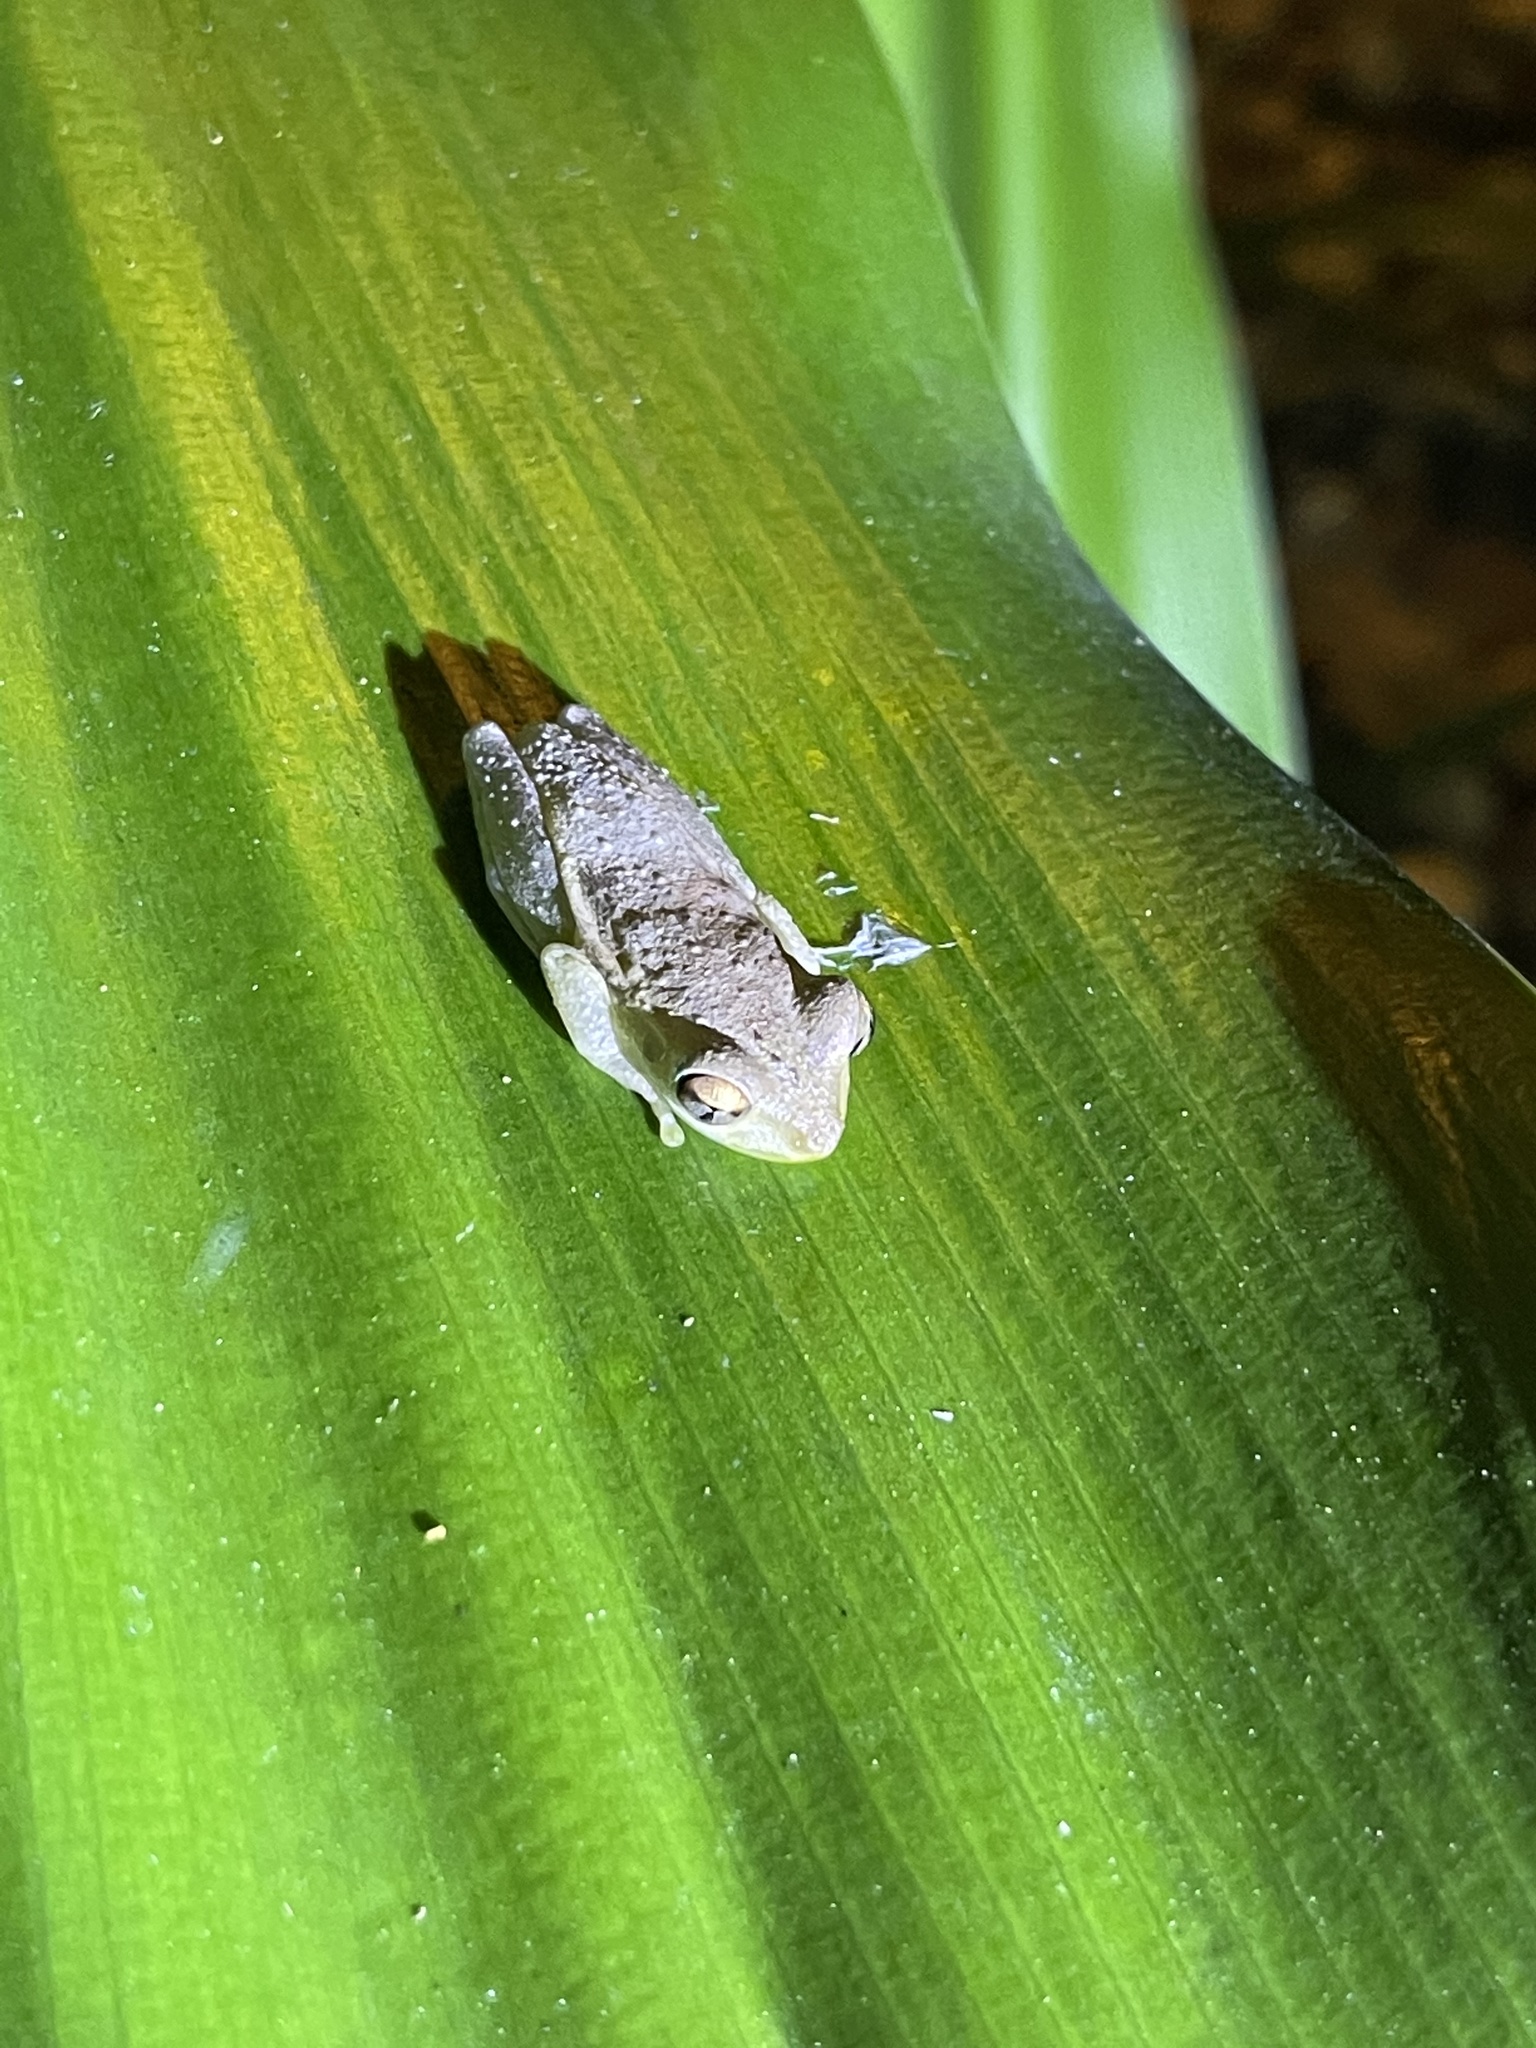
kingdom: Animalia
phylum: Chordata
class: Amphibia
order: Anura
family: Hylidae
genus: Osteopilus
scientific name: Osteopilus septentrionalis
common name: Cuban treefrog
